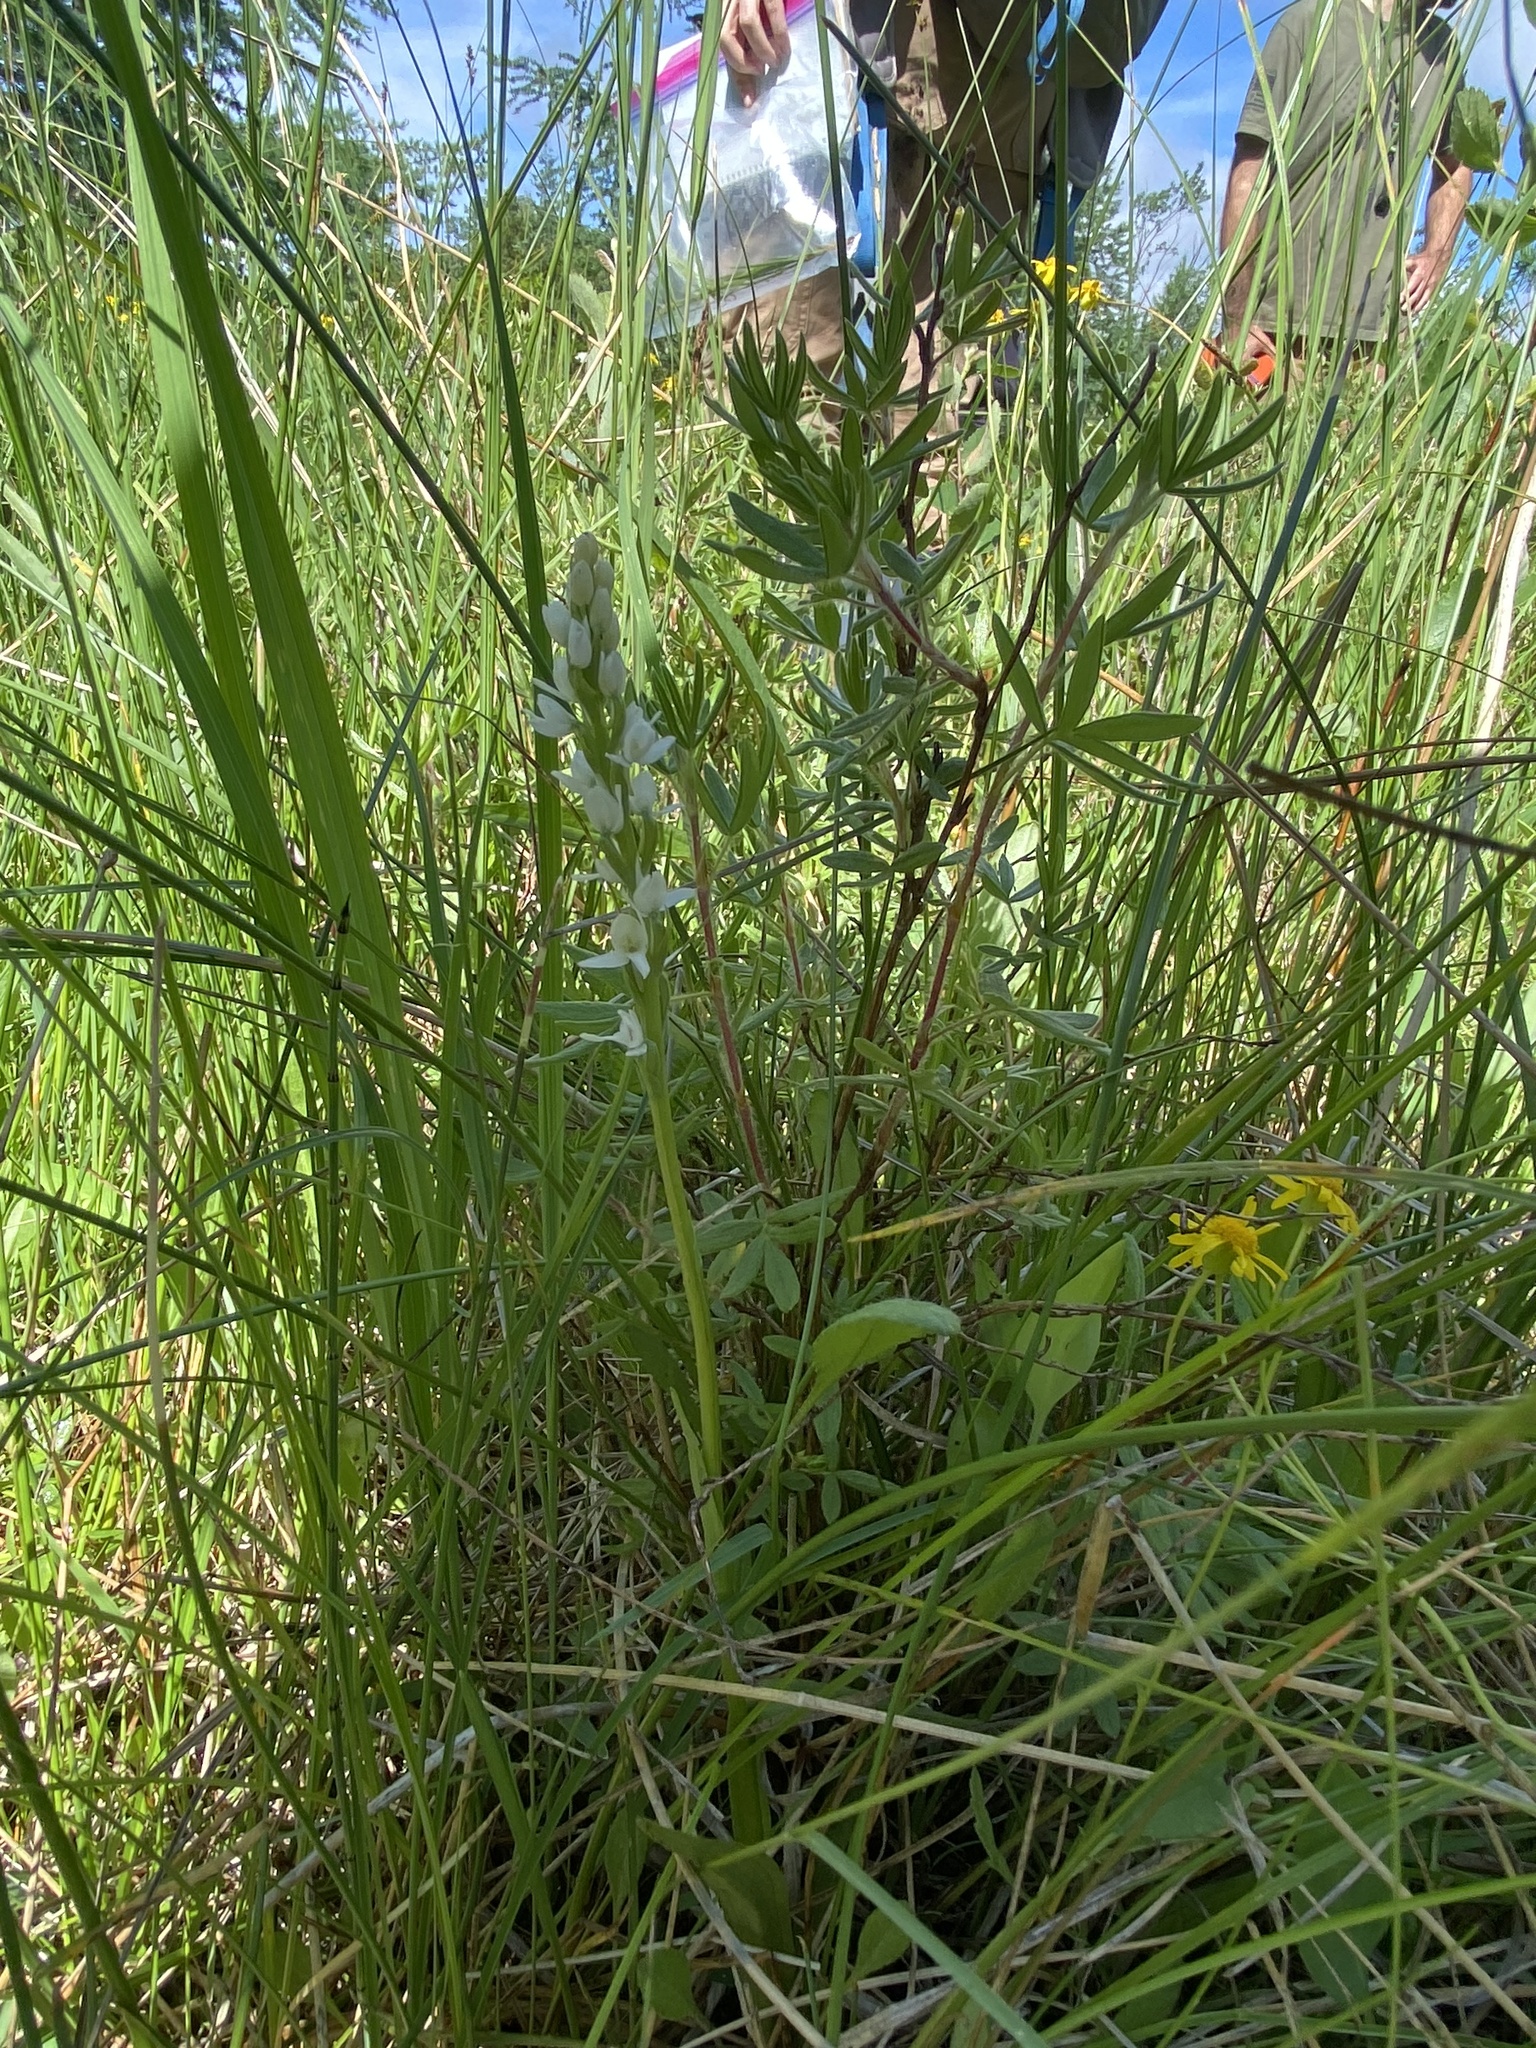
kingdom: Plantae
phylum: Tracheophyta
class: Liliopsida
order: Asparagales
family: Orchidaceae
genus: Platanthera
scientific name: Platanthera dilatata
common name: Bog candles
